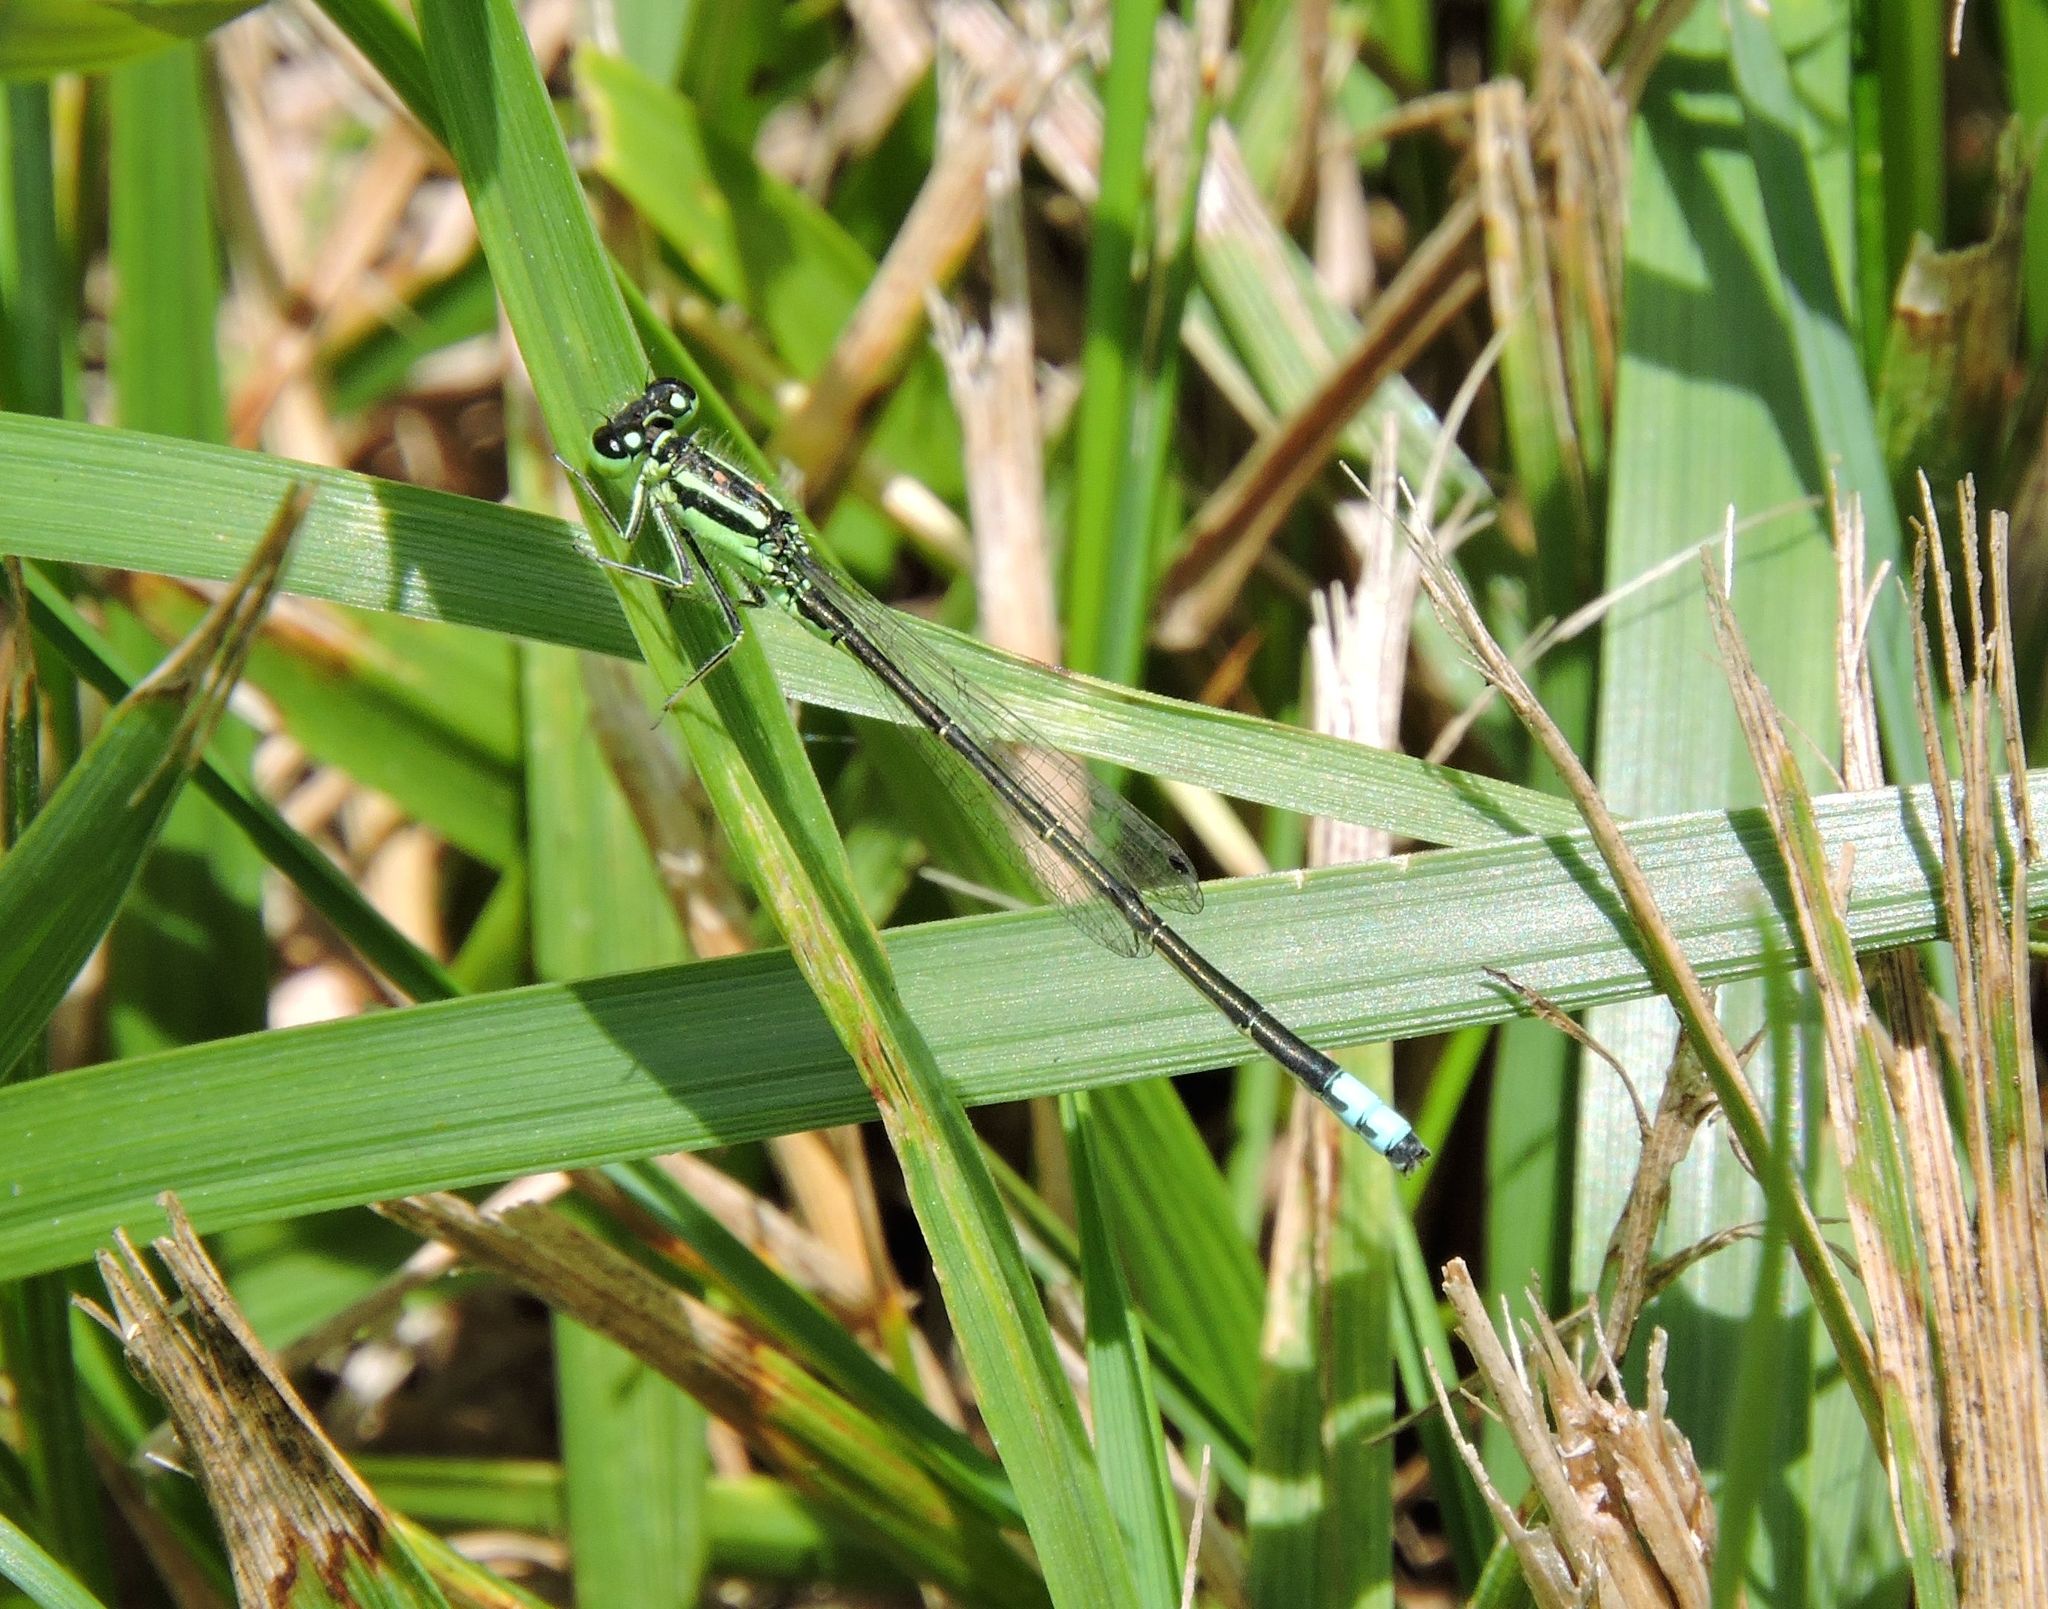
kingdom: Animalia
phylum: Arthropoda
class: Insecta
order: Odonata
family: Coenagrionidae
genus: Ischnura
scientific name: Ischnura verticalis
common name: Eastern forktail
